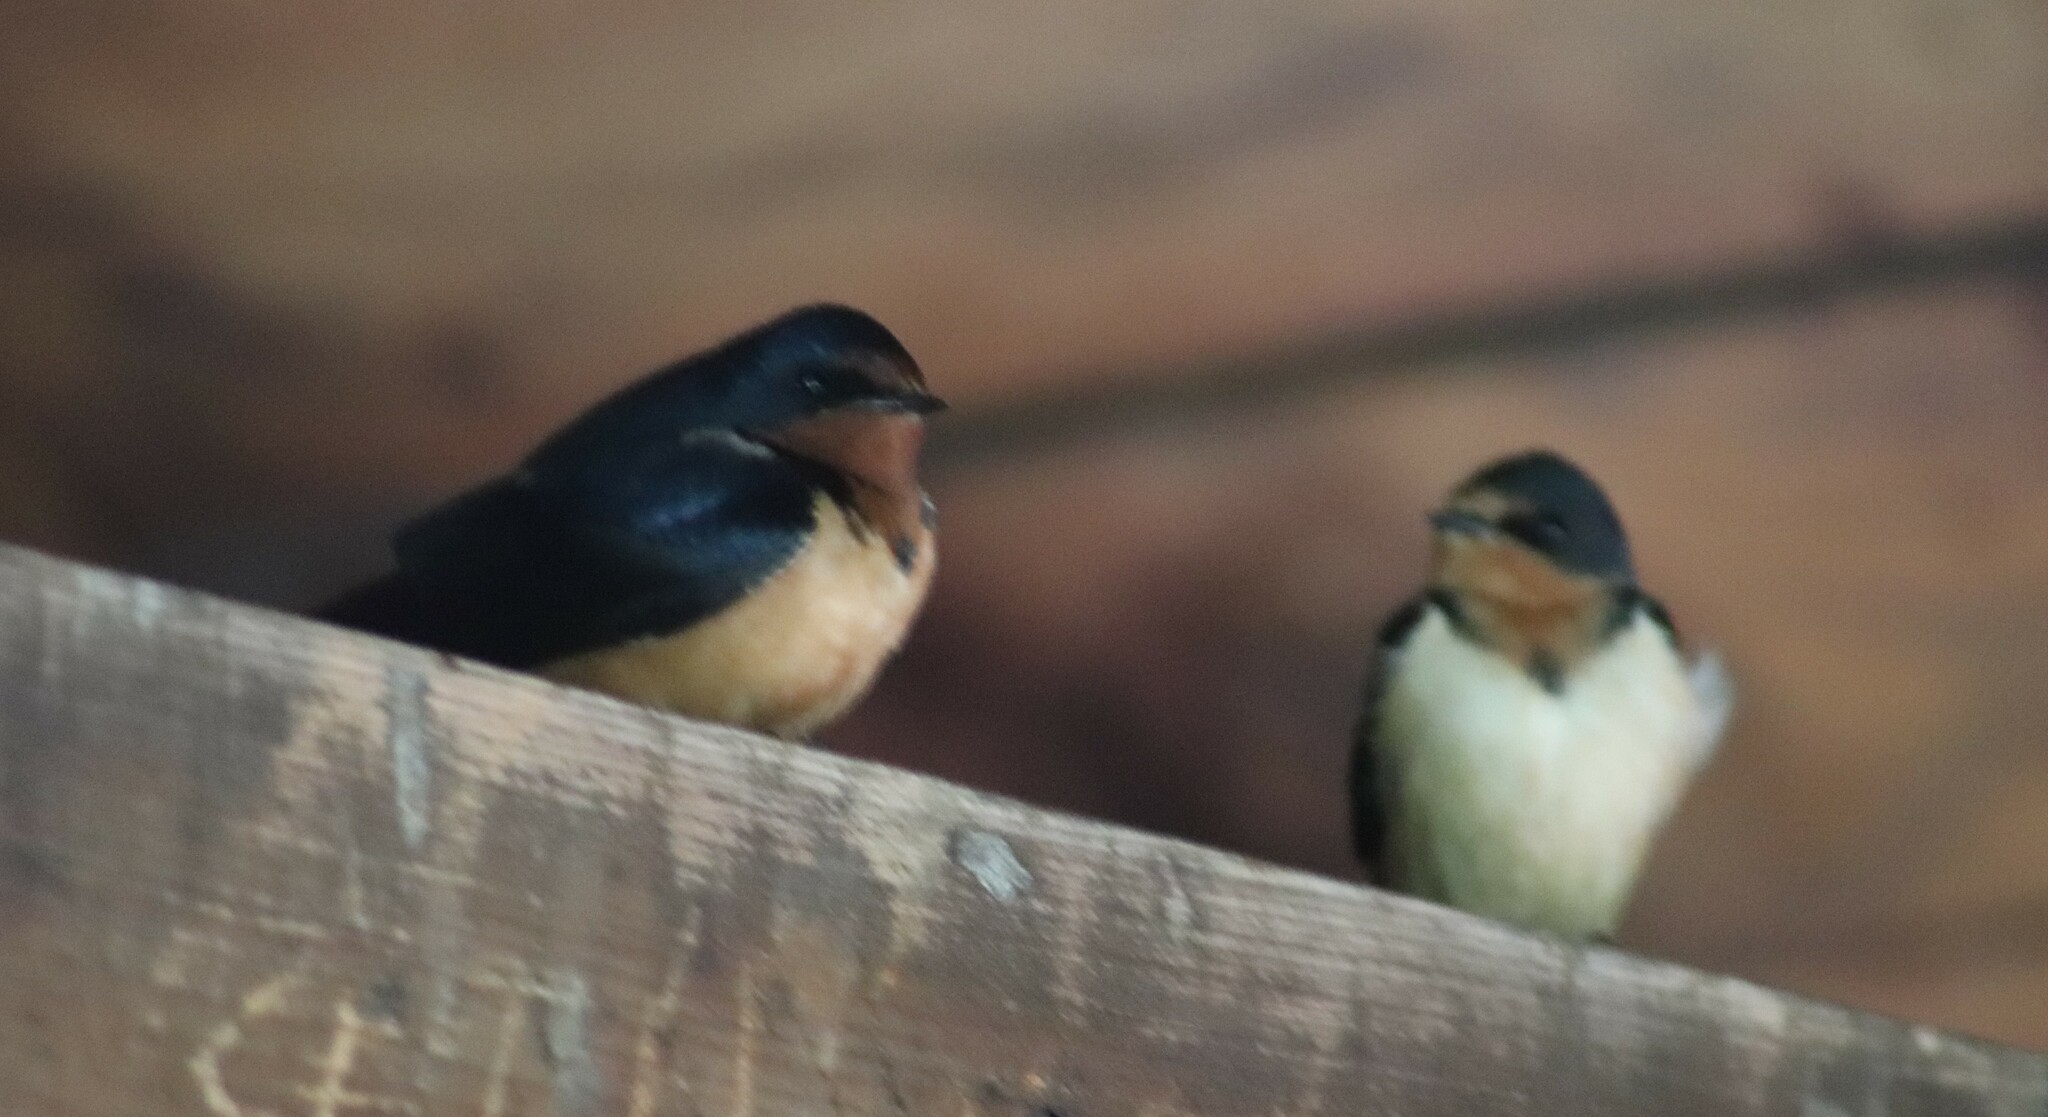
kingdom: Animalia
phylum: Chordata
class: Aves
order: Passeriformes
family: Hirundinidae
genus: Hirundo
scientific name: Hirundo rustica
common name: Barn swallow
